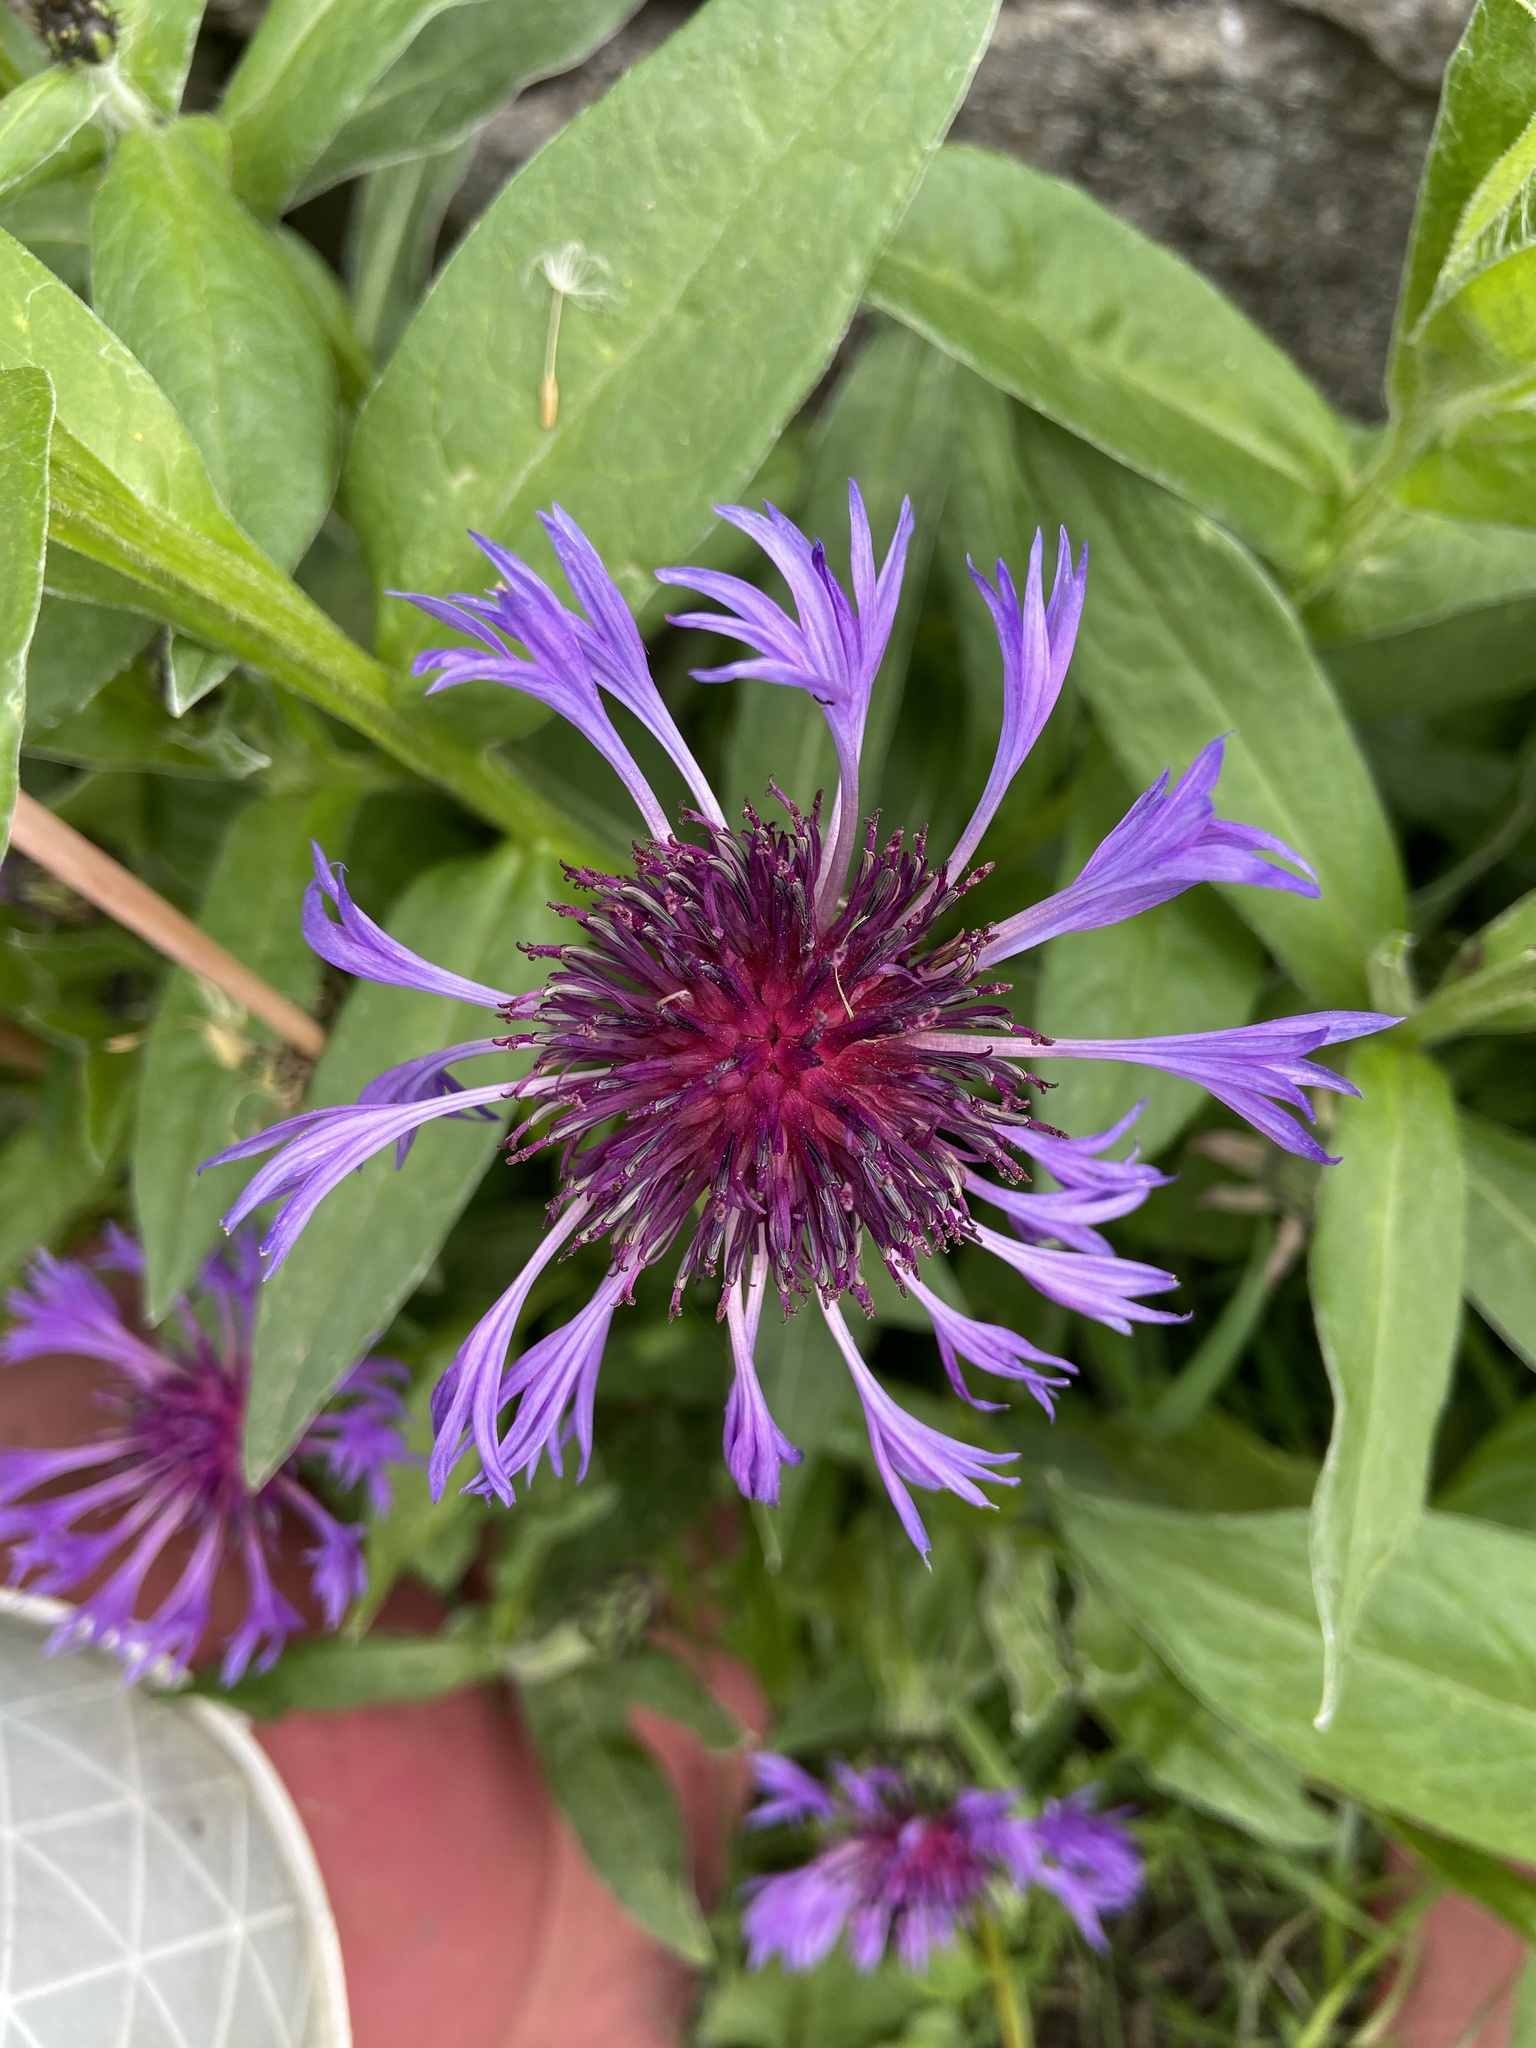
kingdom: Plantae
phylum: Tracheophyta
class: Magnoliopsida
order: Asterales
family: Asteraceae
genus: Centaurea
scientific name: Centaurea montana
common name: Perennial cornflower
